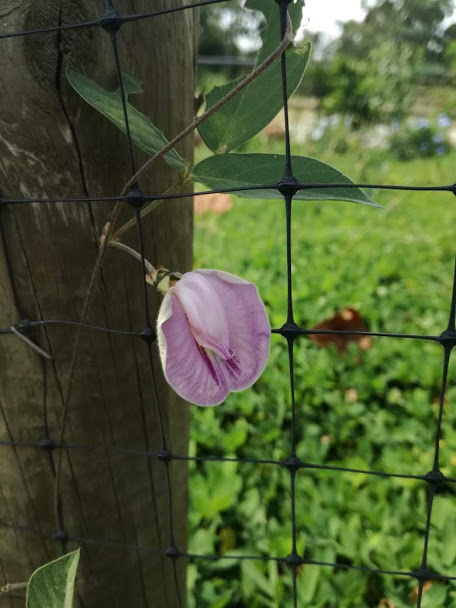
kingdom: Plantae
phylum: Tracheophyta
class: Magnoliopsida
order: Fabales
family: Fabaceae
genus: Centrosema
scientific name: Centrosema virginianum
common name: Butterfly-pea
